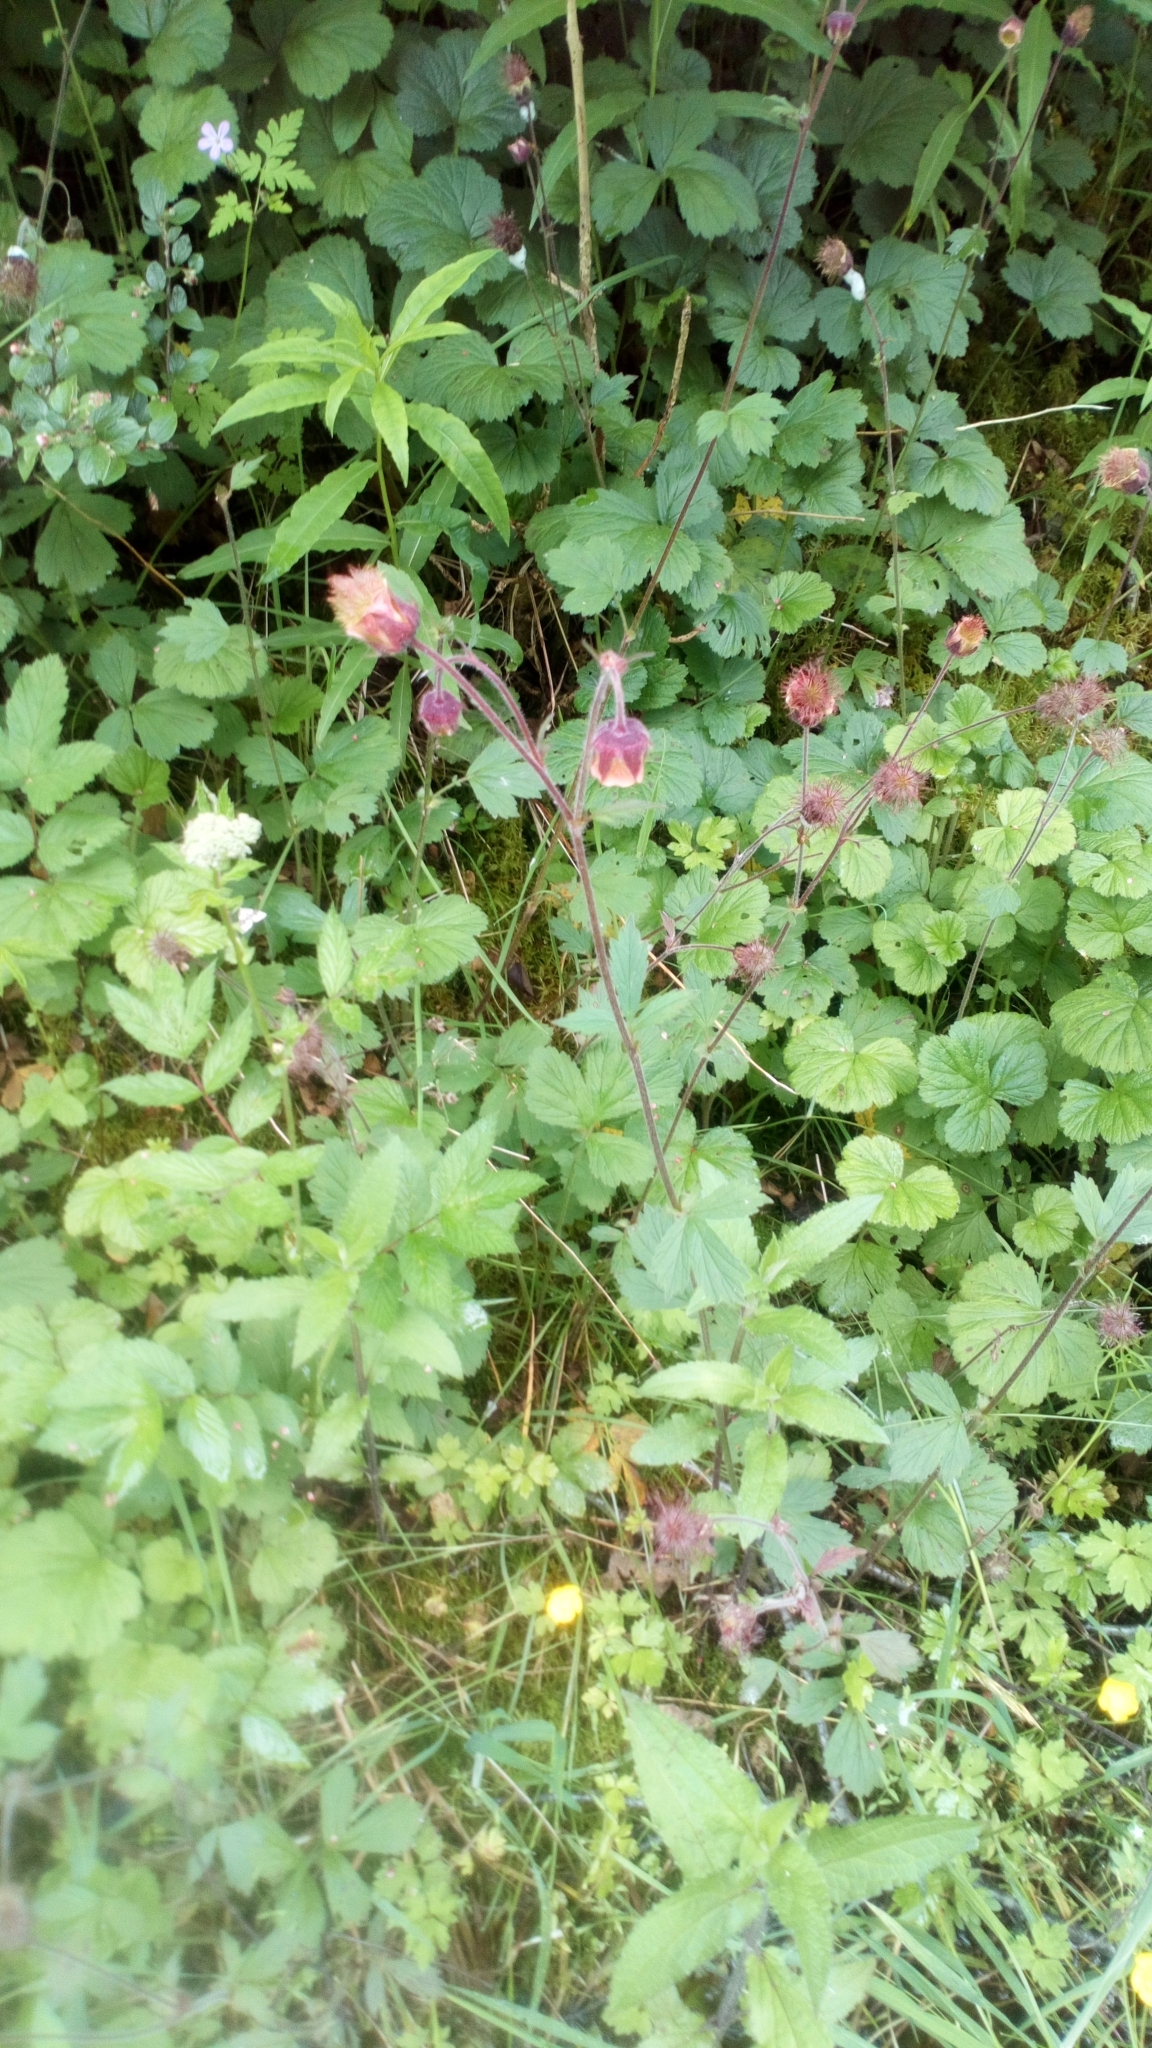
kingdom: Plantae
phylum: Tracheophyta
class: Magnoliopsida
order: Rosales
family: Rosaceae
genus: Geum
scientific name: Geum rivale
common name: Water avens
